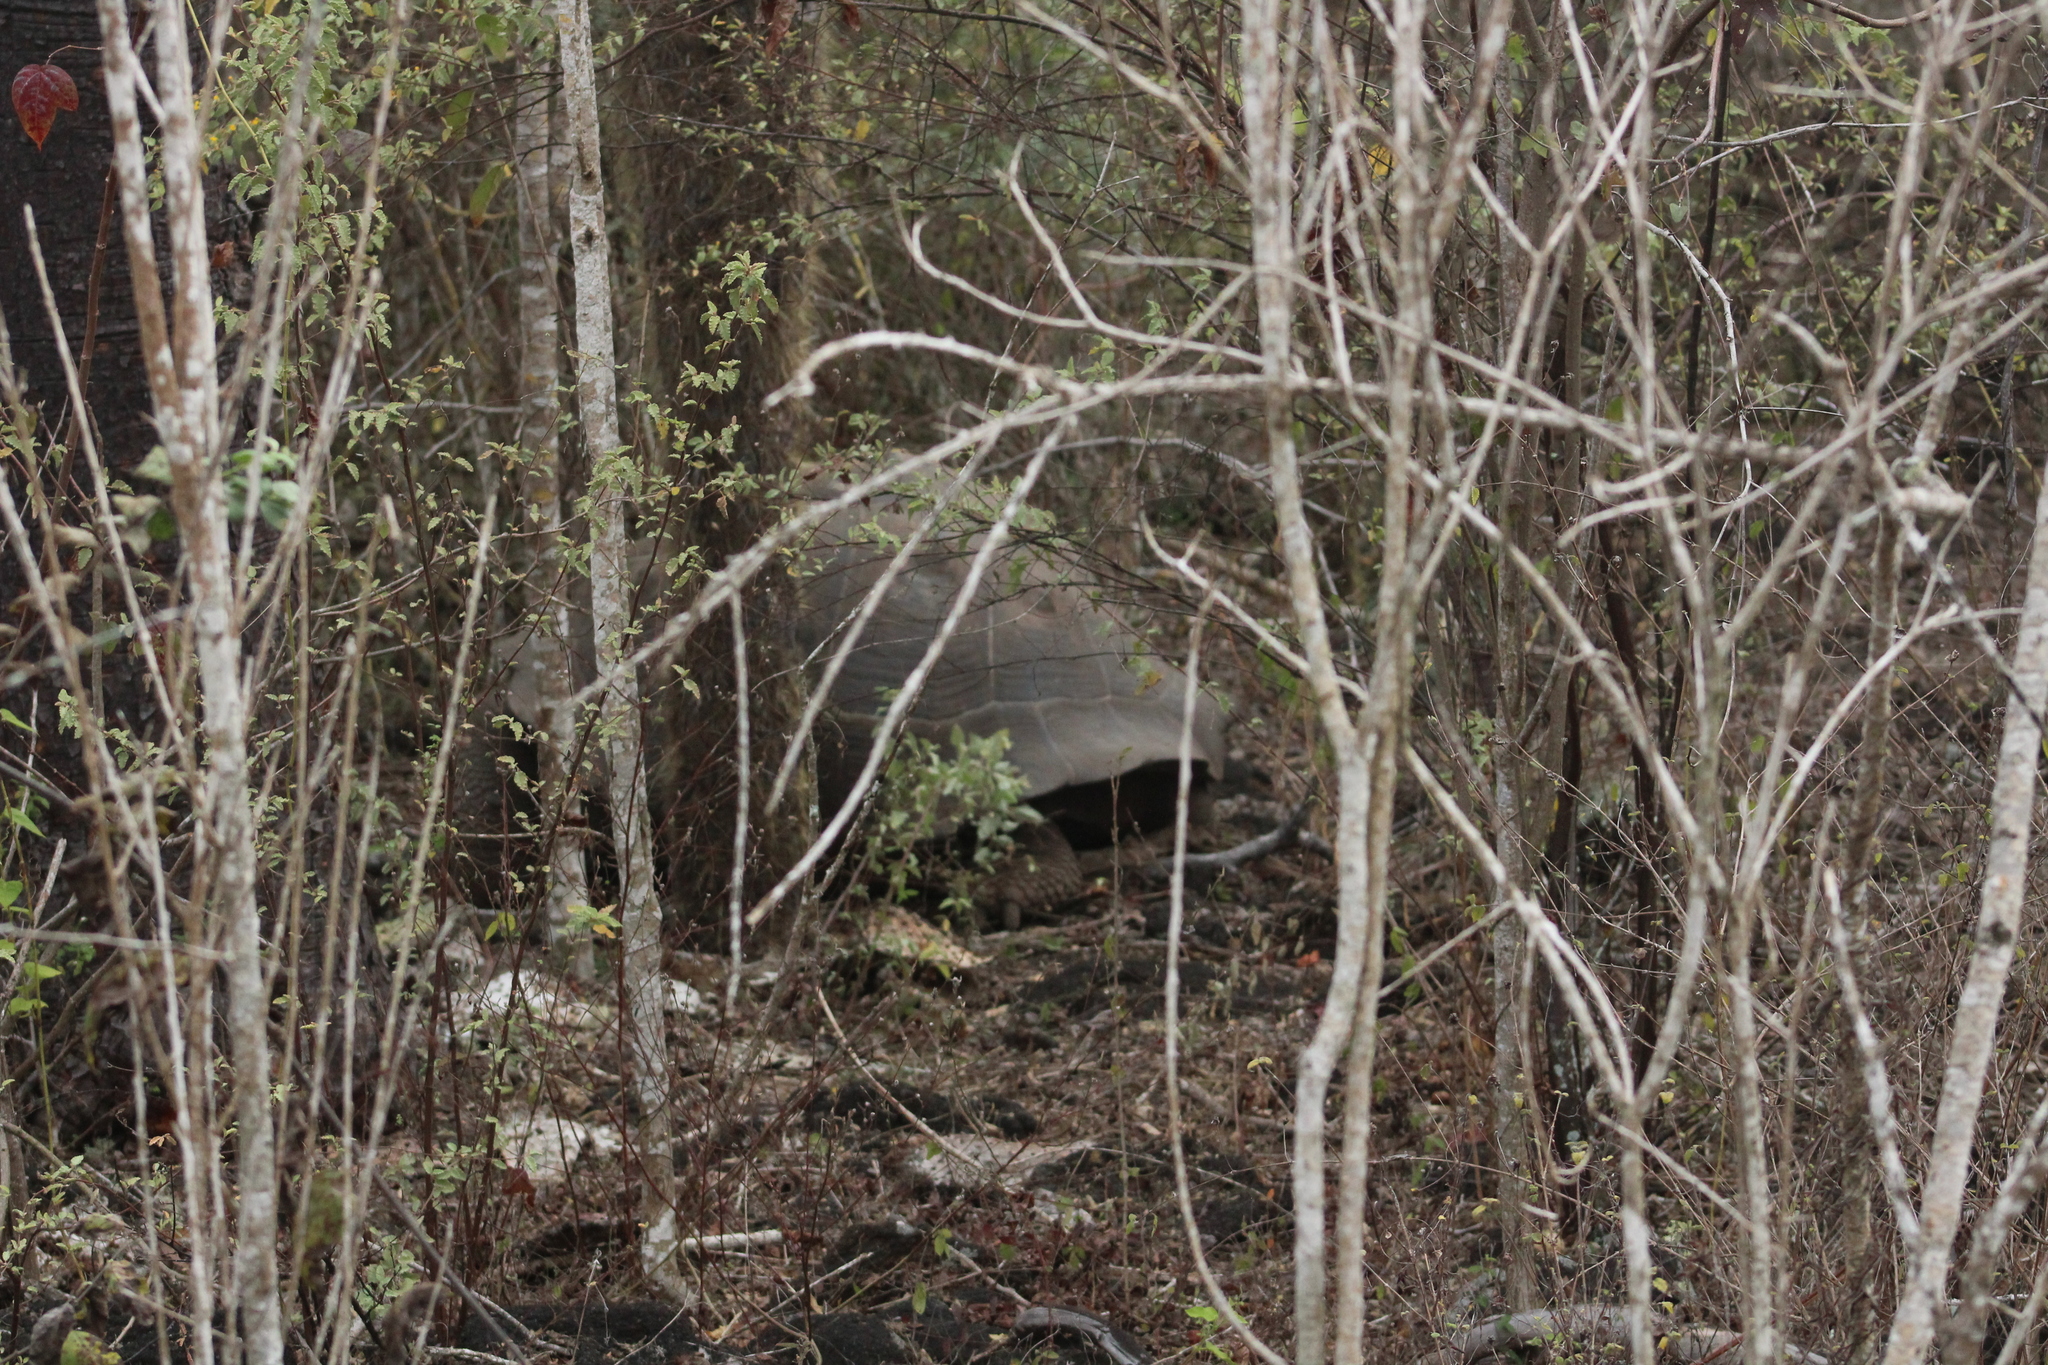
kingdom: Animalia
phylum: Chordata
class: Testudines
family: Testudinidae
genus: Chelonoidis
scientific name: Chelonoidis guntheri
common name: Sierra negra giant tortoise
